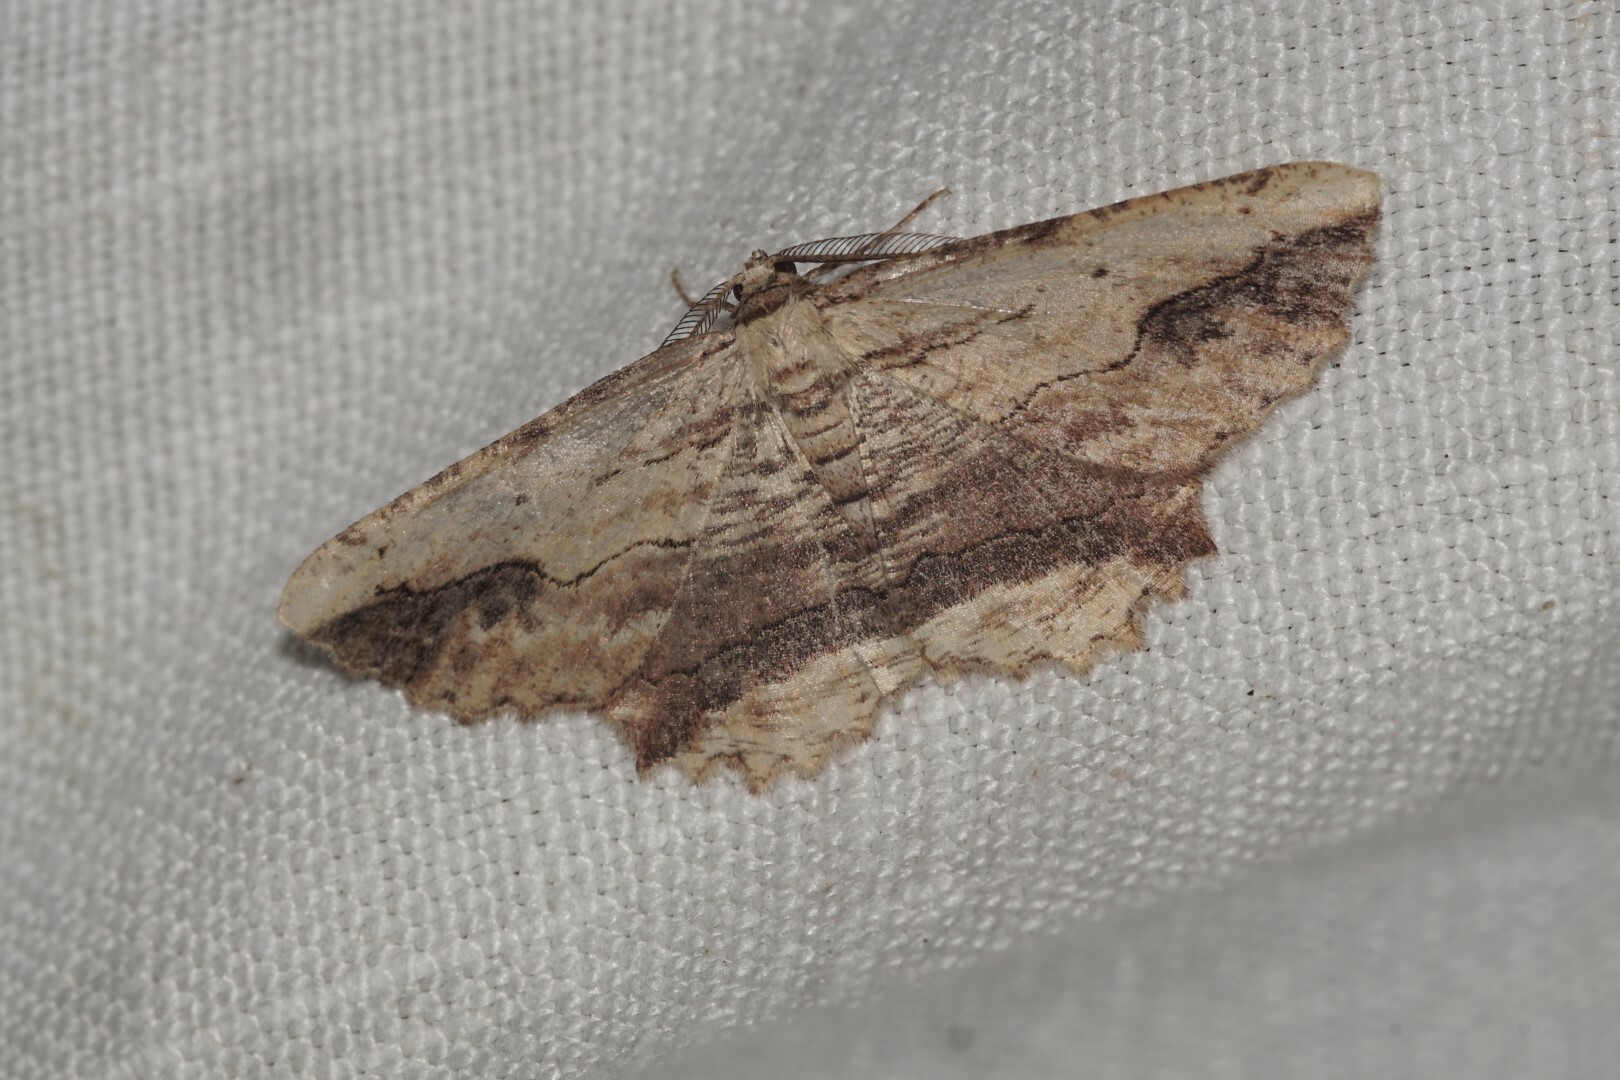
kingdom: Animalia
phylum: Arthropoda
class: Insecta
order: Lepidoptera
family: Geometridae
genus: Menophra
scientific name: Menophra abruptaria
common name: Waved umber
